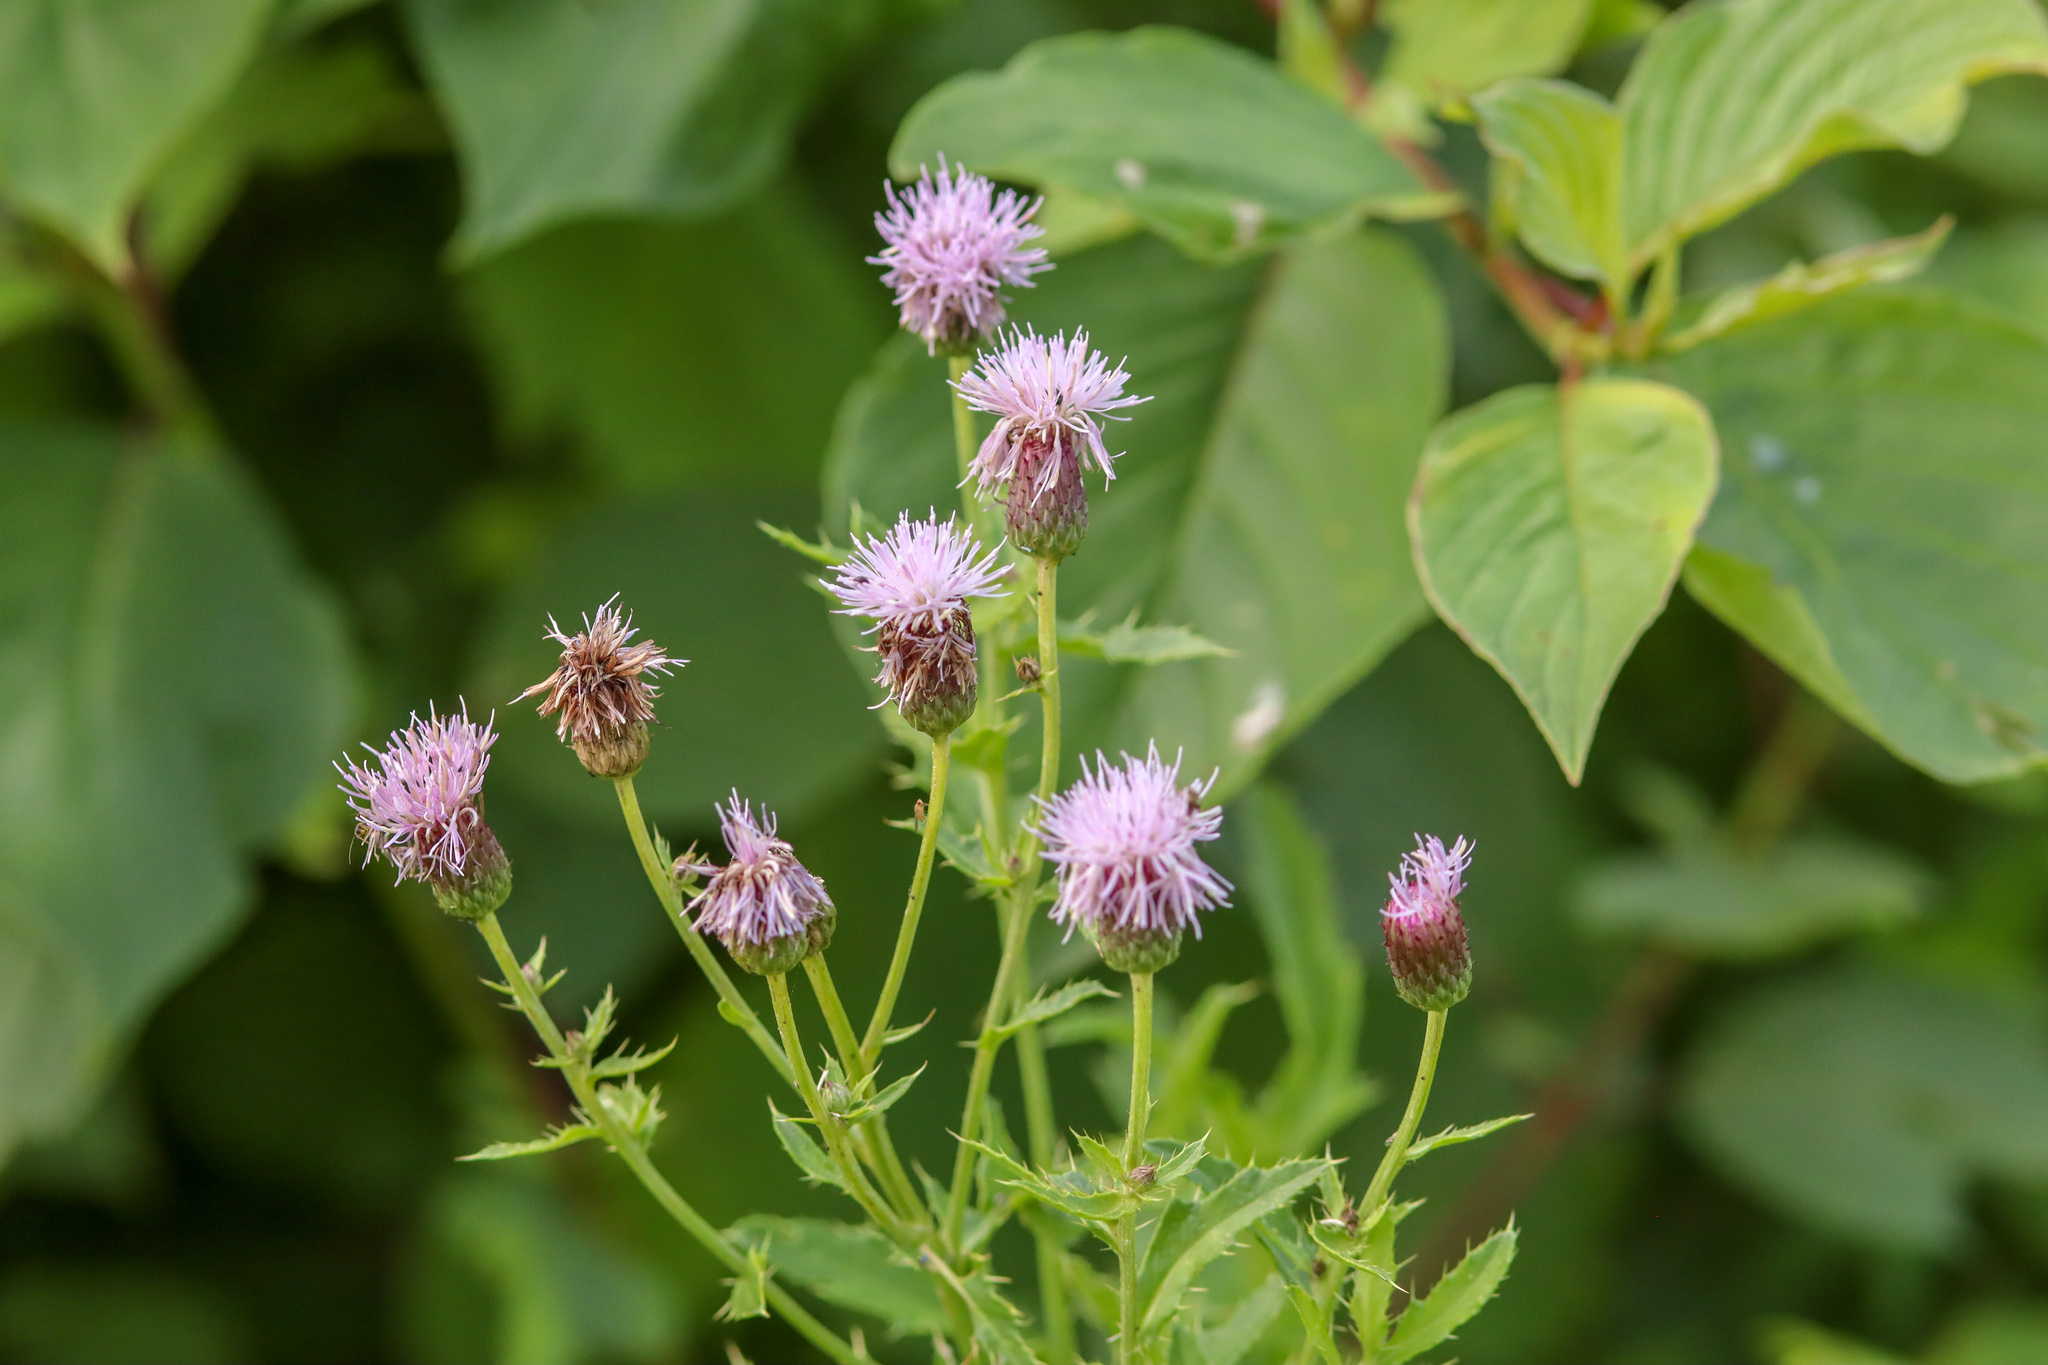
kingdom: Plantae
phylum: Tracheophyta
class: Magnoliopsida
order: Asterales
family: Asteraceae
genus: Cirsium
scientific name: Cirsium arvense
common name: Creeping thistle
